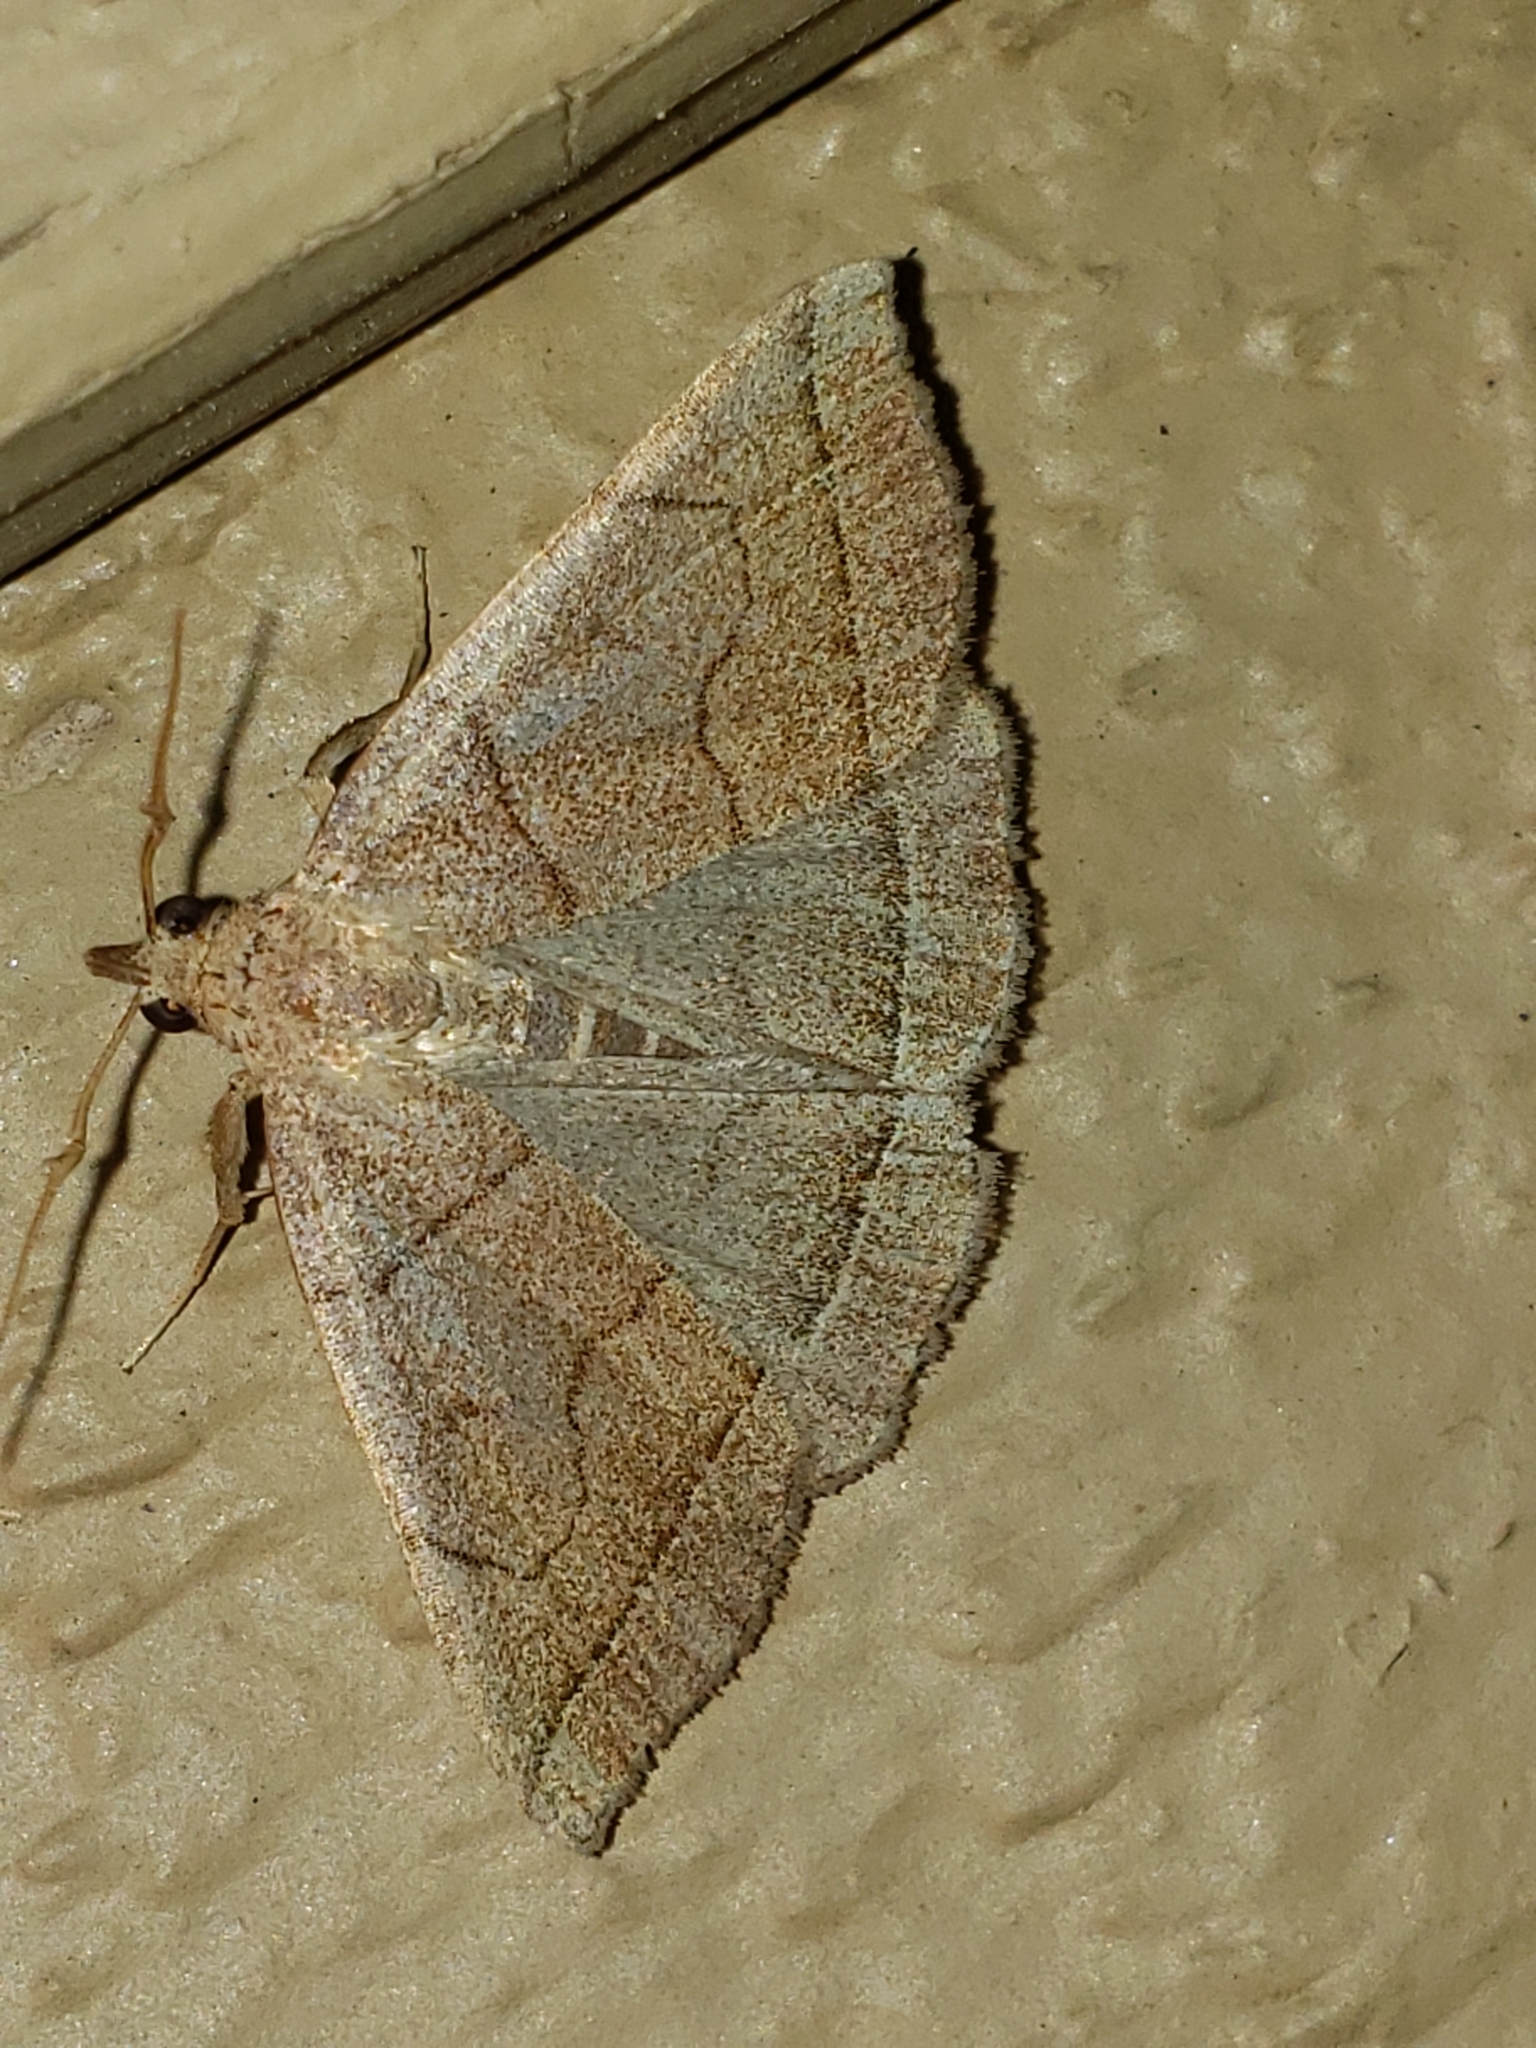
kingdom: Animalia
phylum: Arthropoda
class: Insecta
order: Lepidoptera
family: Erebidae
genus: Zanclognatha
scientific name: Zanclognatha cruralis
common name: Early fan-foot
